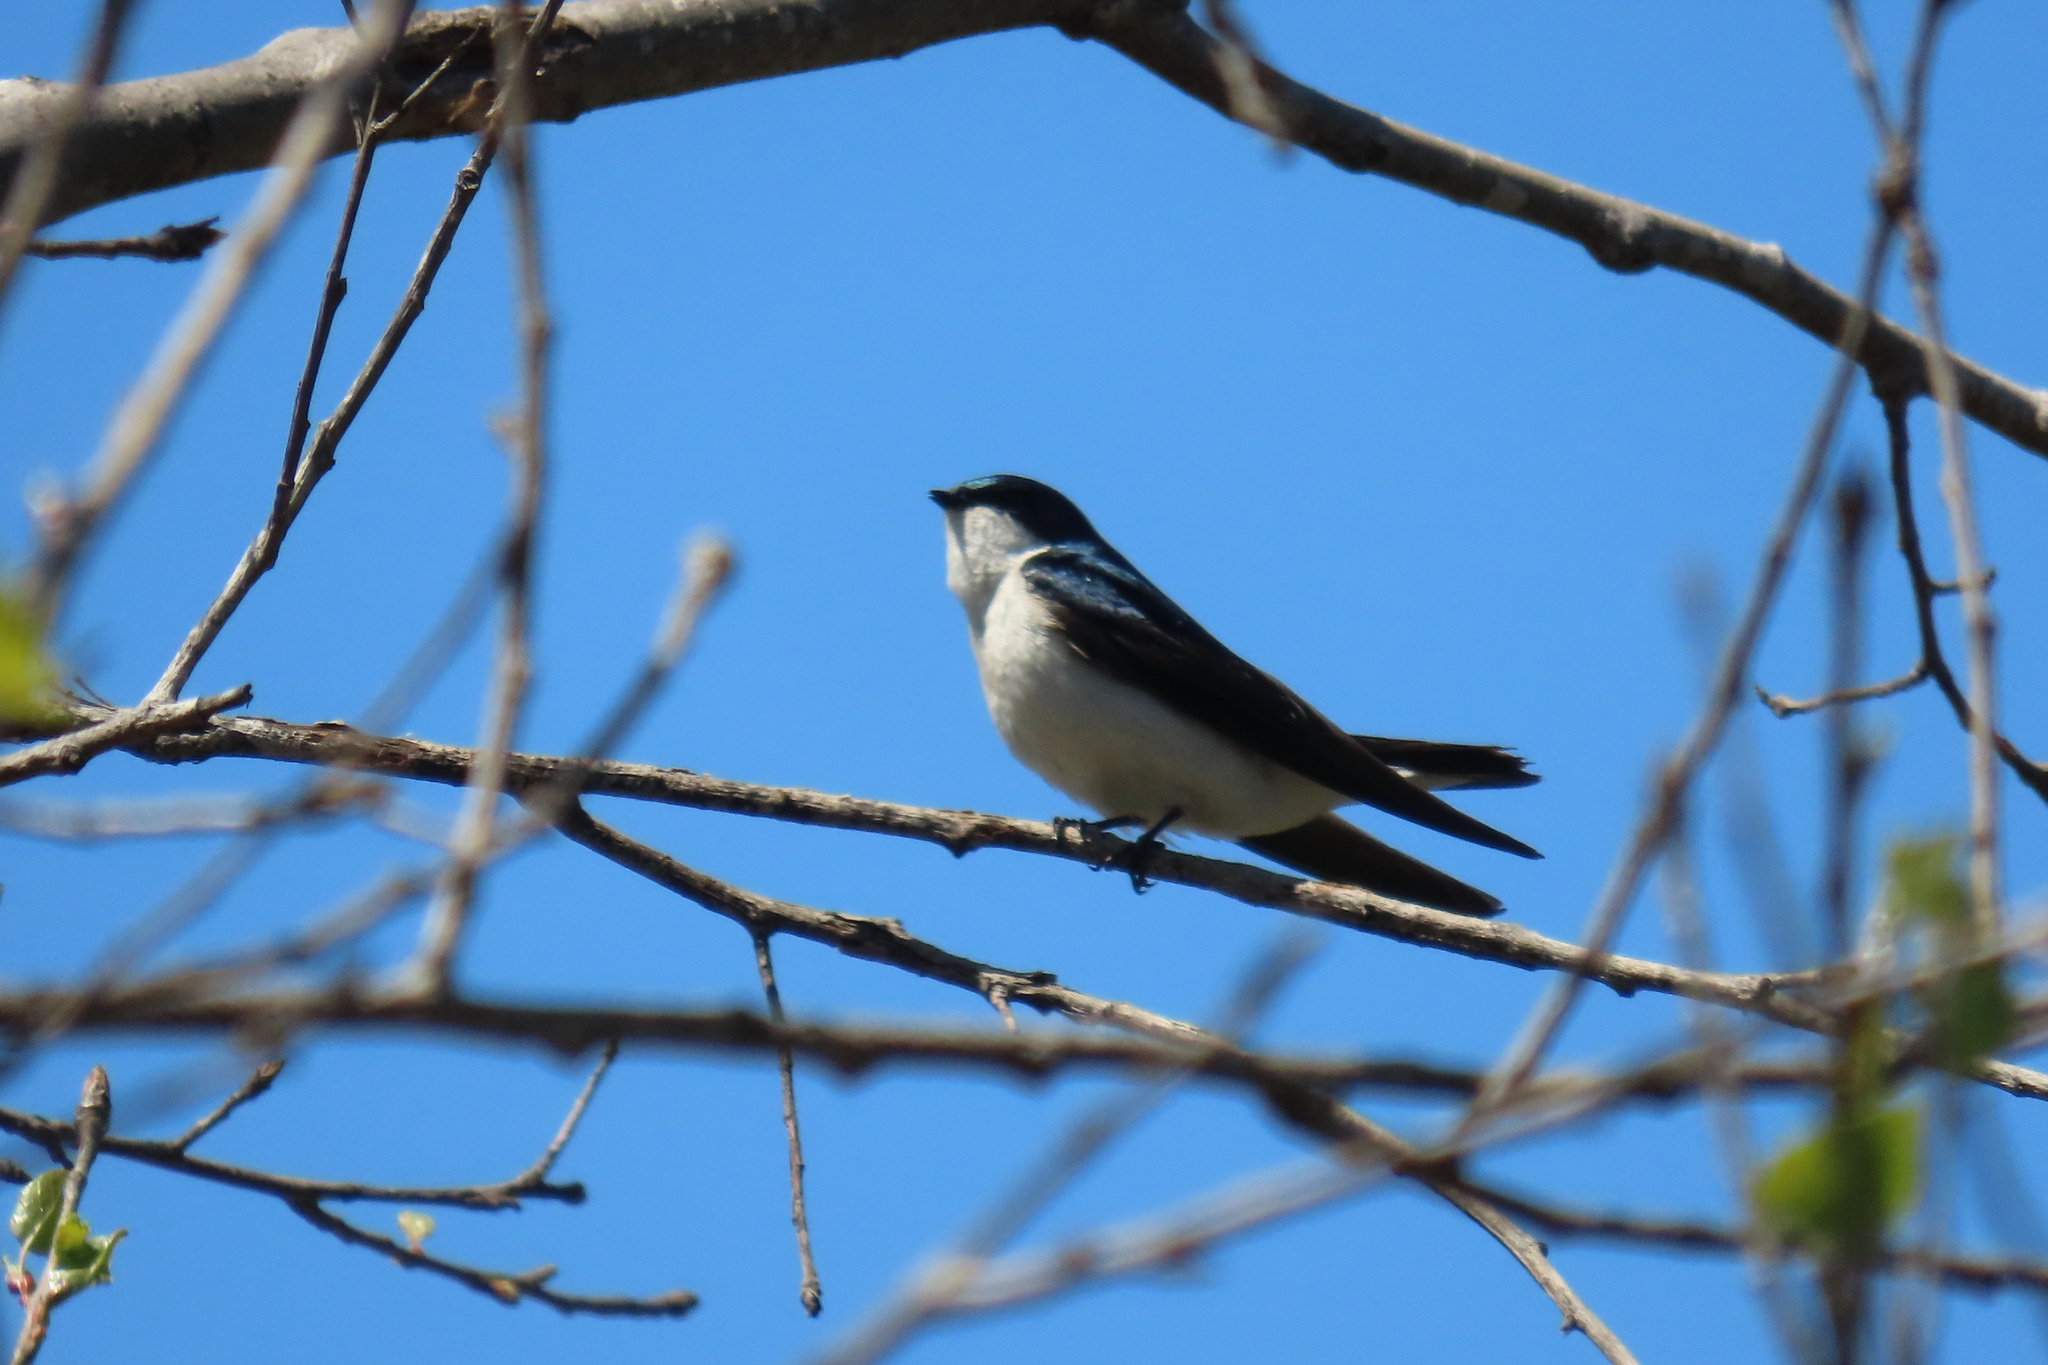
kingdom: Animalia
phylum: Chordata
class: Aves
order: Passeriformes
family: Hirundinidae
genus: Tachycineta
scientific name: Tachycineta bicolor
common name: Tree swallow
